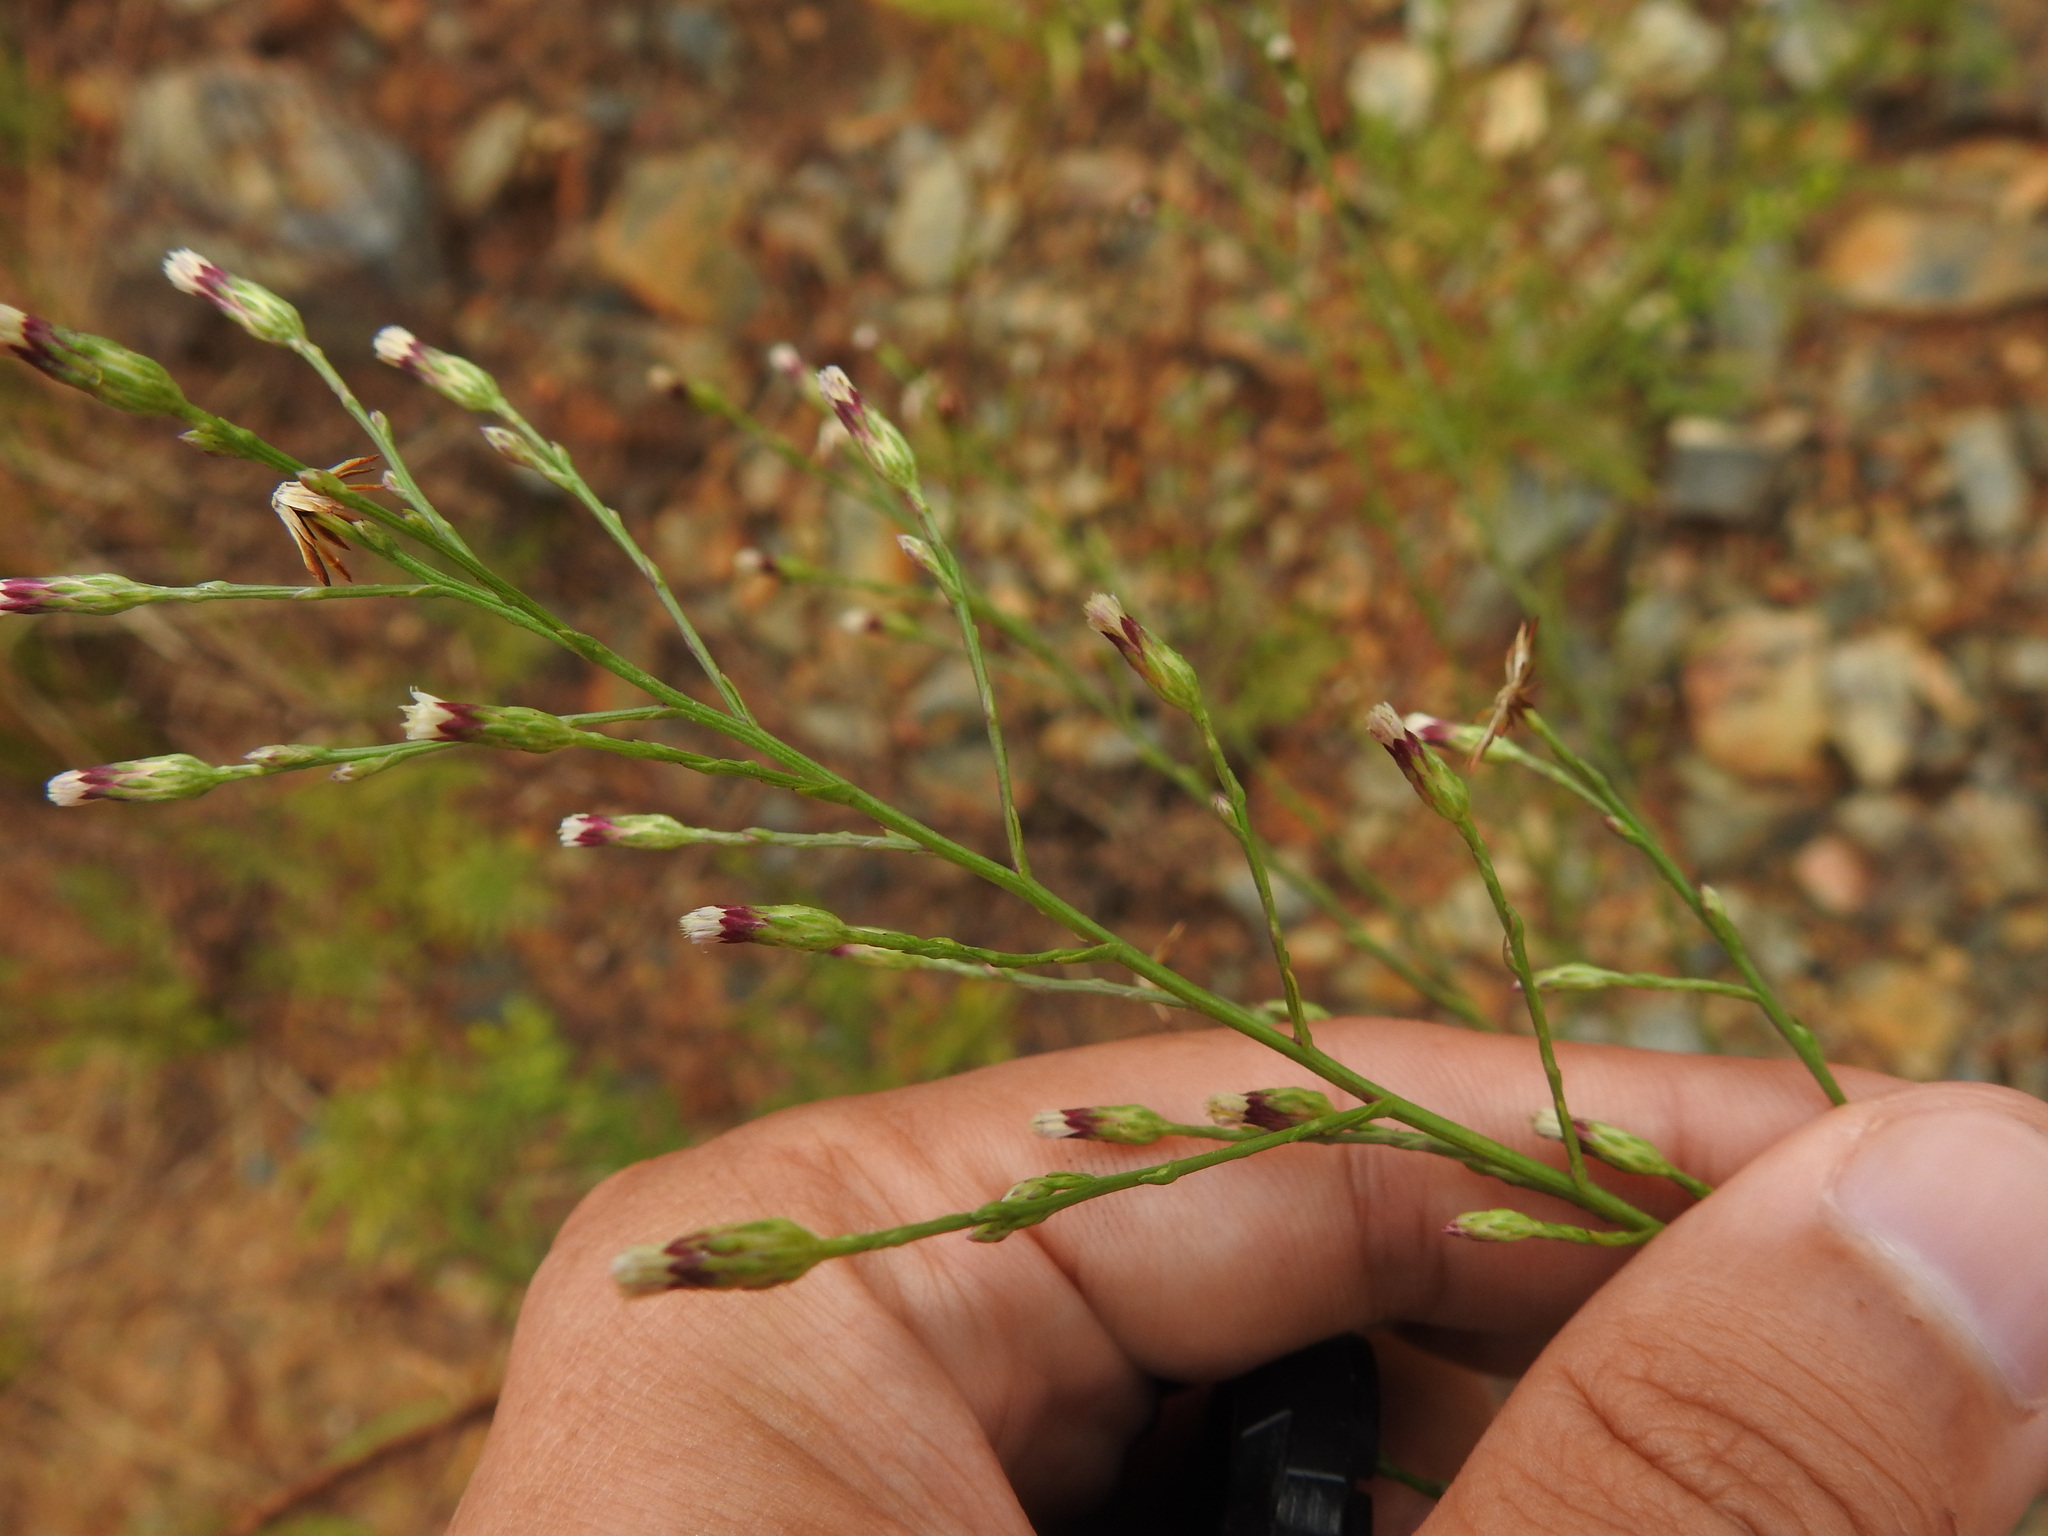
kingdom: Plantae
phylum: Tracheophyta
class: Magnoliopsida
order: Asterales
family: Asteraceae
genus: Symphyotrichum
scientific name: Symphyotrichum squamatum
